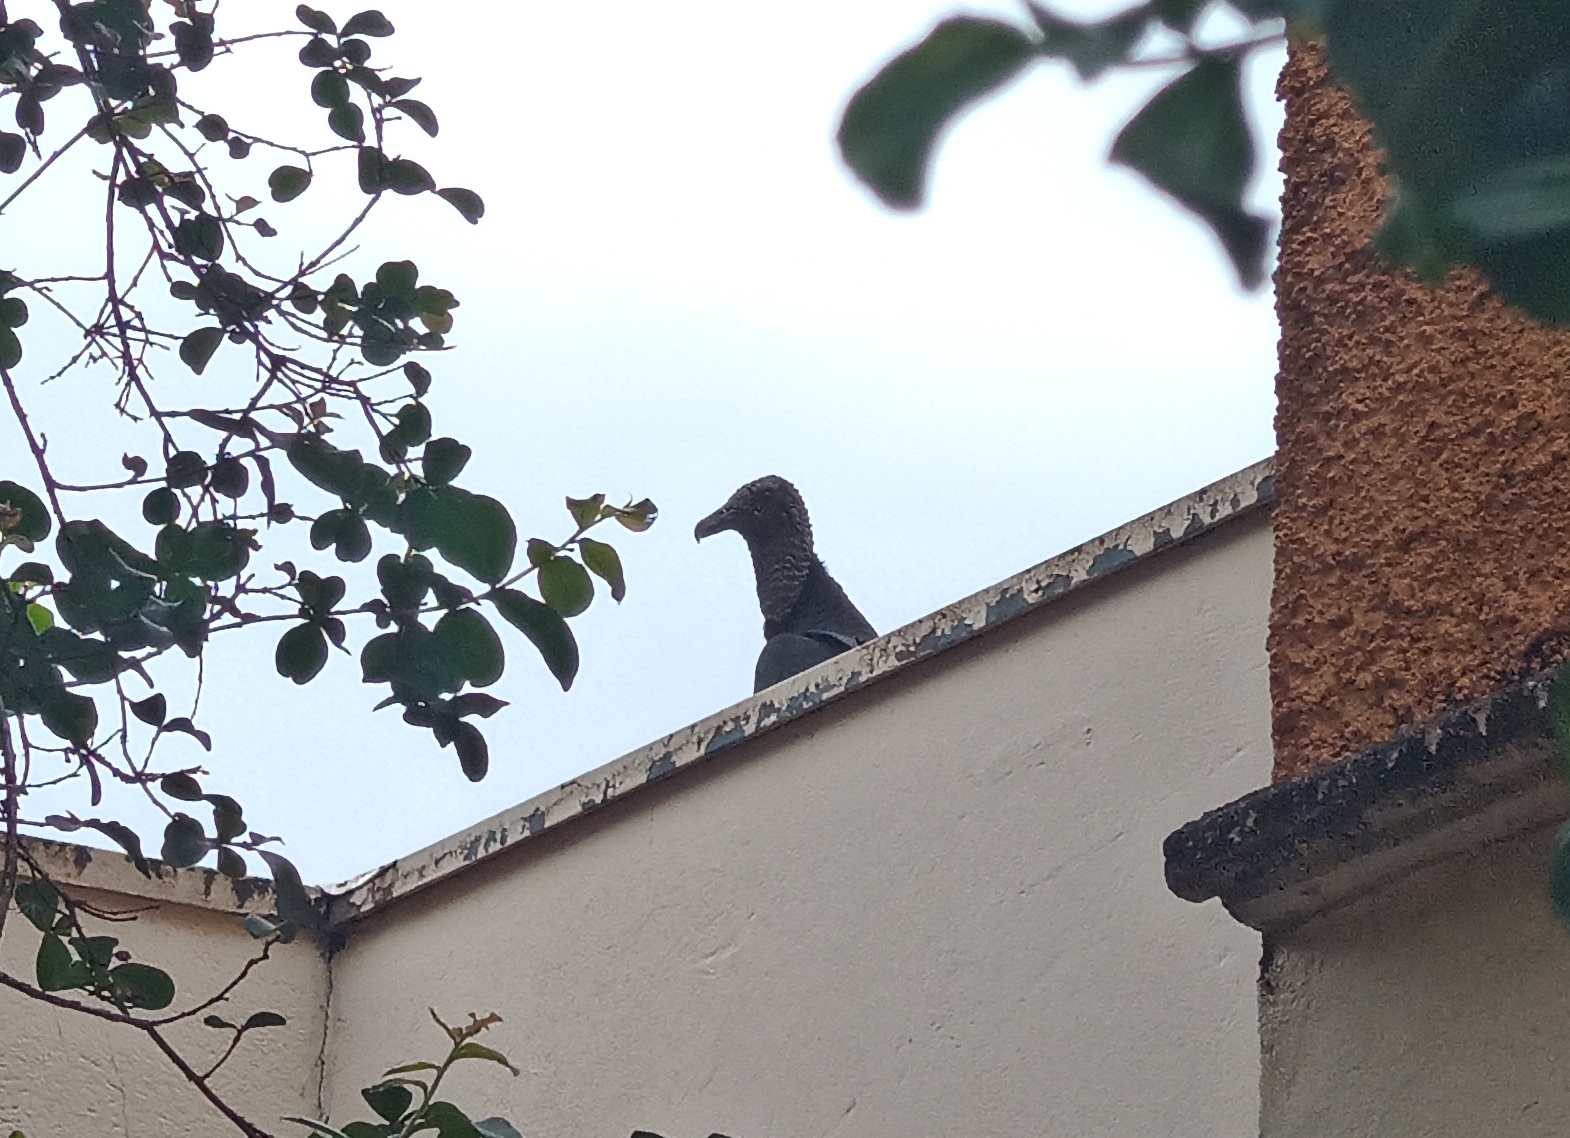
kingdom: Animalia
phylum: Chordata
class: Aves
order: Accipitriformes
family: Cathartidae
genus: Coragyps
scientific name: Coragyps atratus
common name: Black vulture
